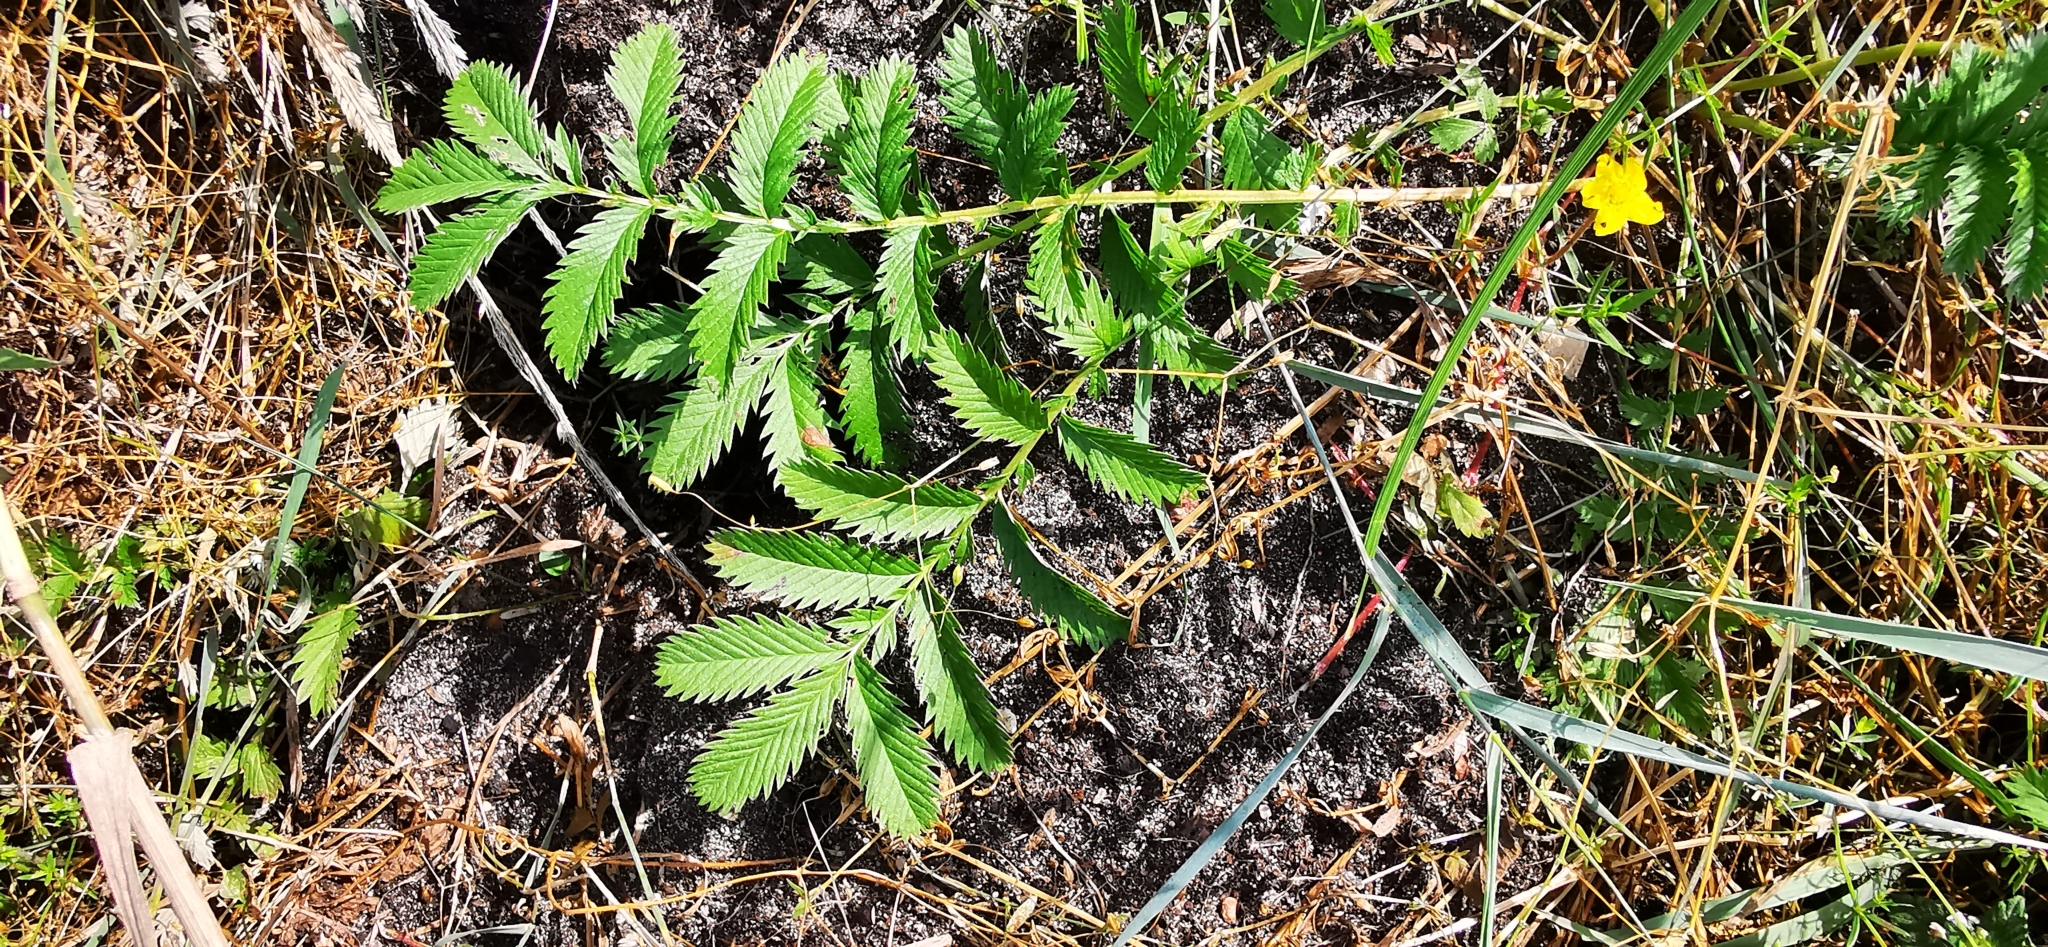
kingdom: Plantae
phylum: Tracheophyta
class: Magnoliopsida
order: Rosales
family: Rosaceae
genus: Argentina
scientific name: Argentina anserina
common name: Common silverweed
